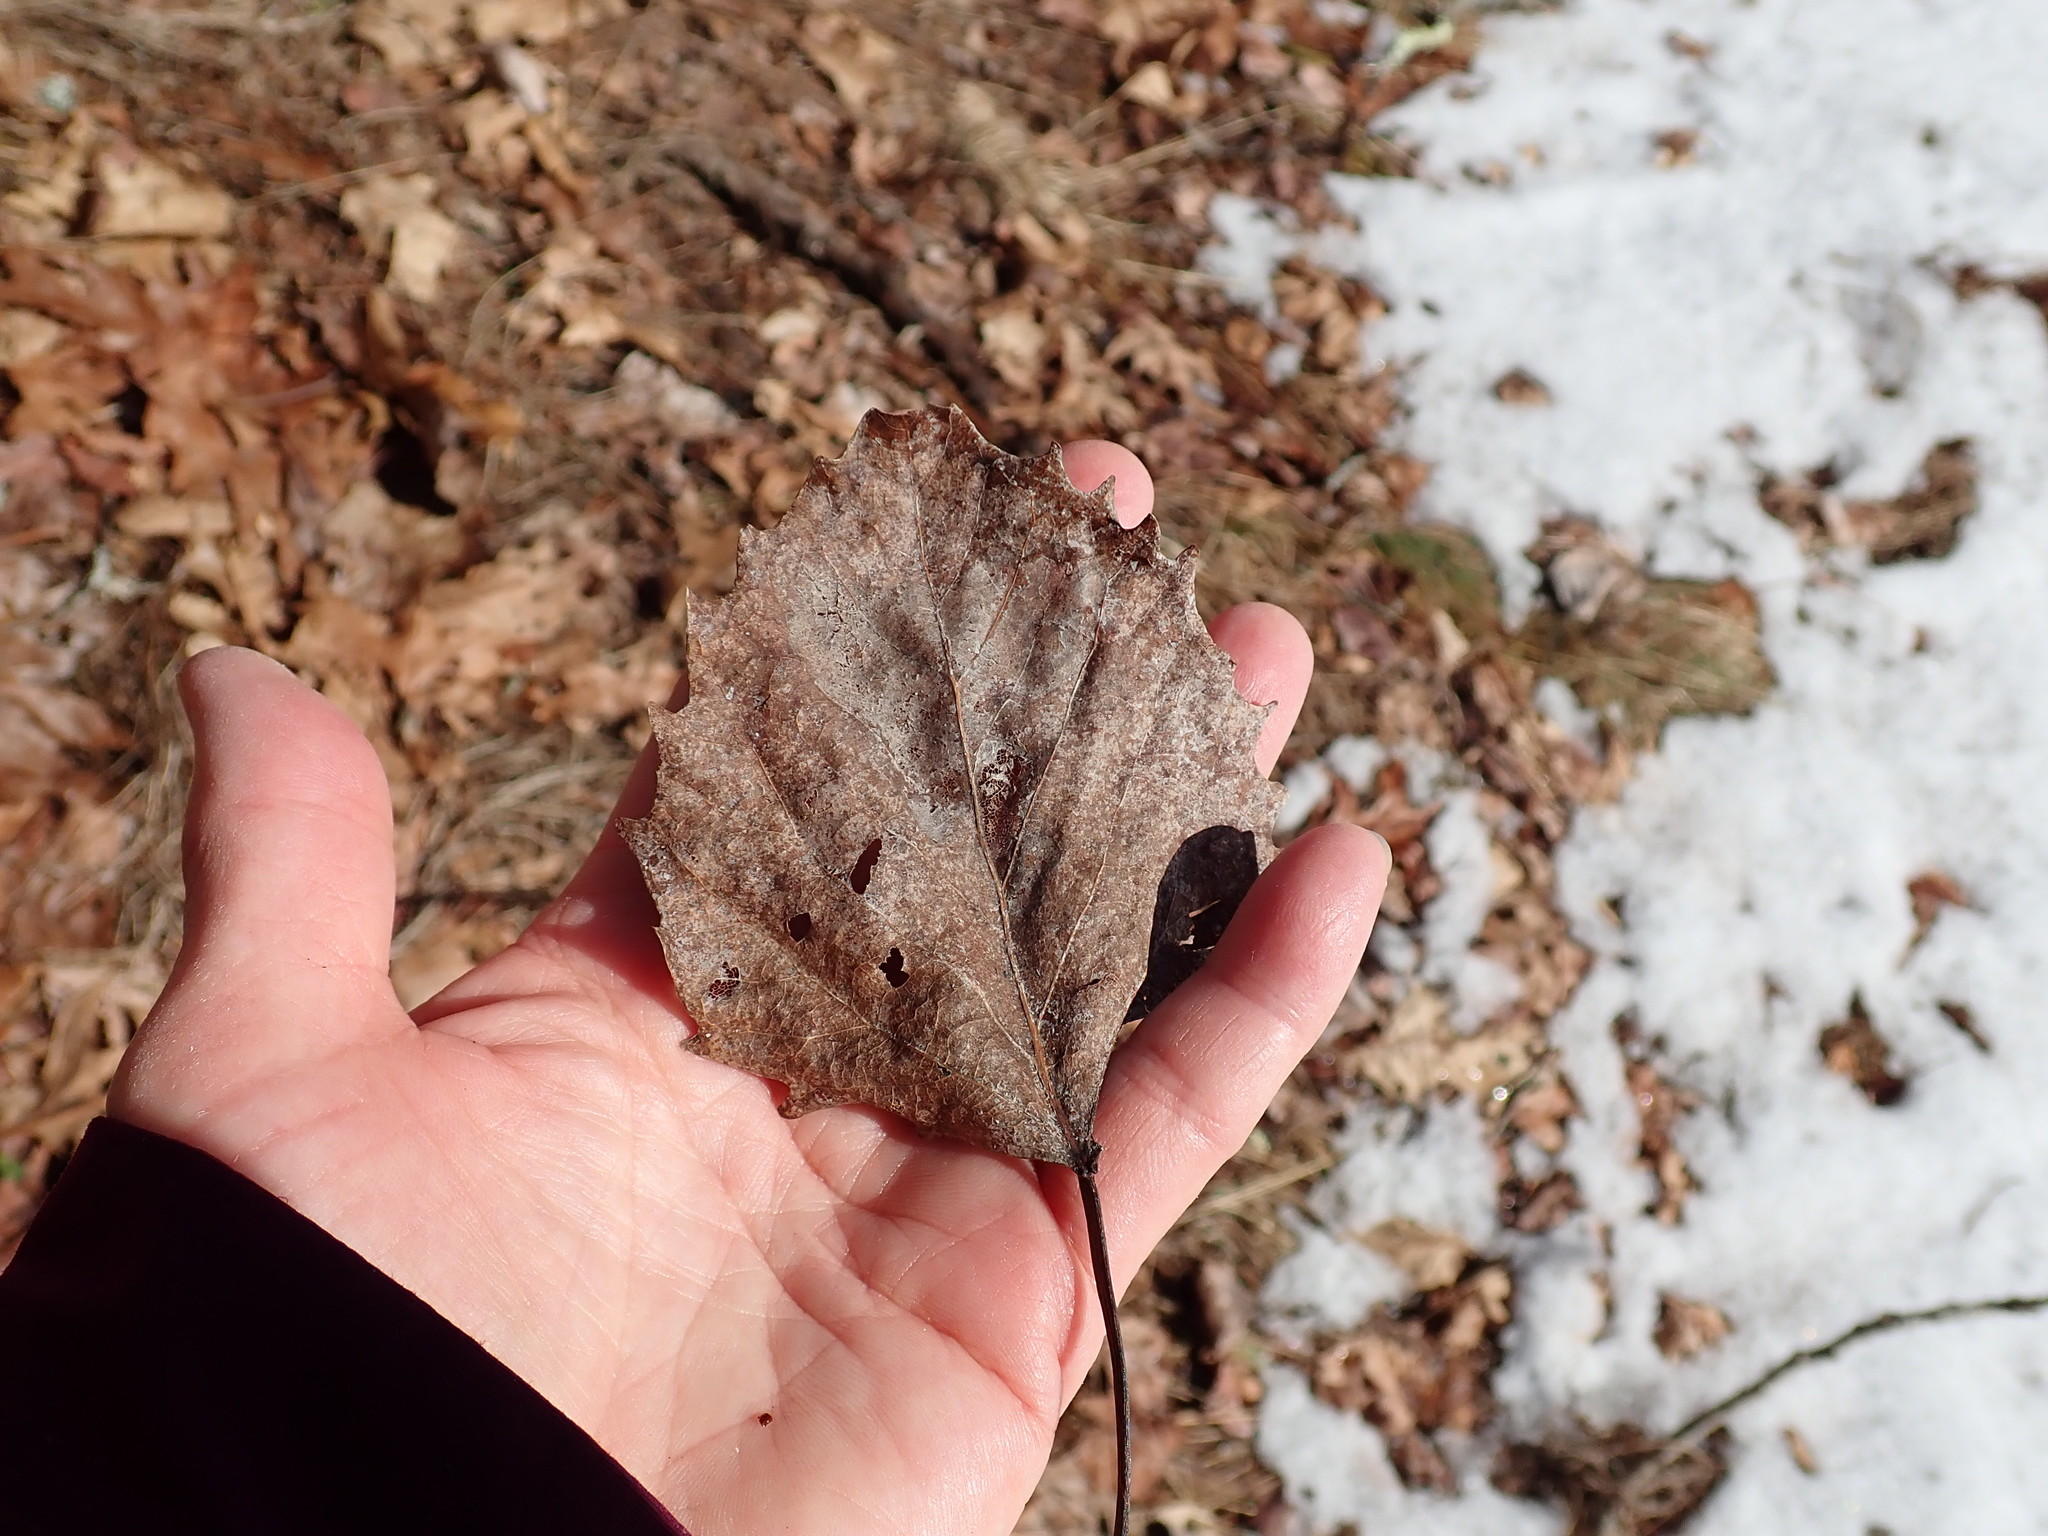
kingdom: Plantae
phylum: Tracheophyta
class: Magnoliopsida
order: Malpighiales
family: Salicaceae
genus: Populus
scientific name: Populus grandidentata
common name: Bigtooth aspen
